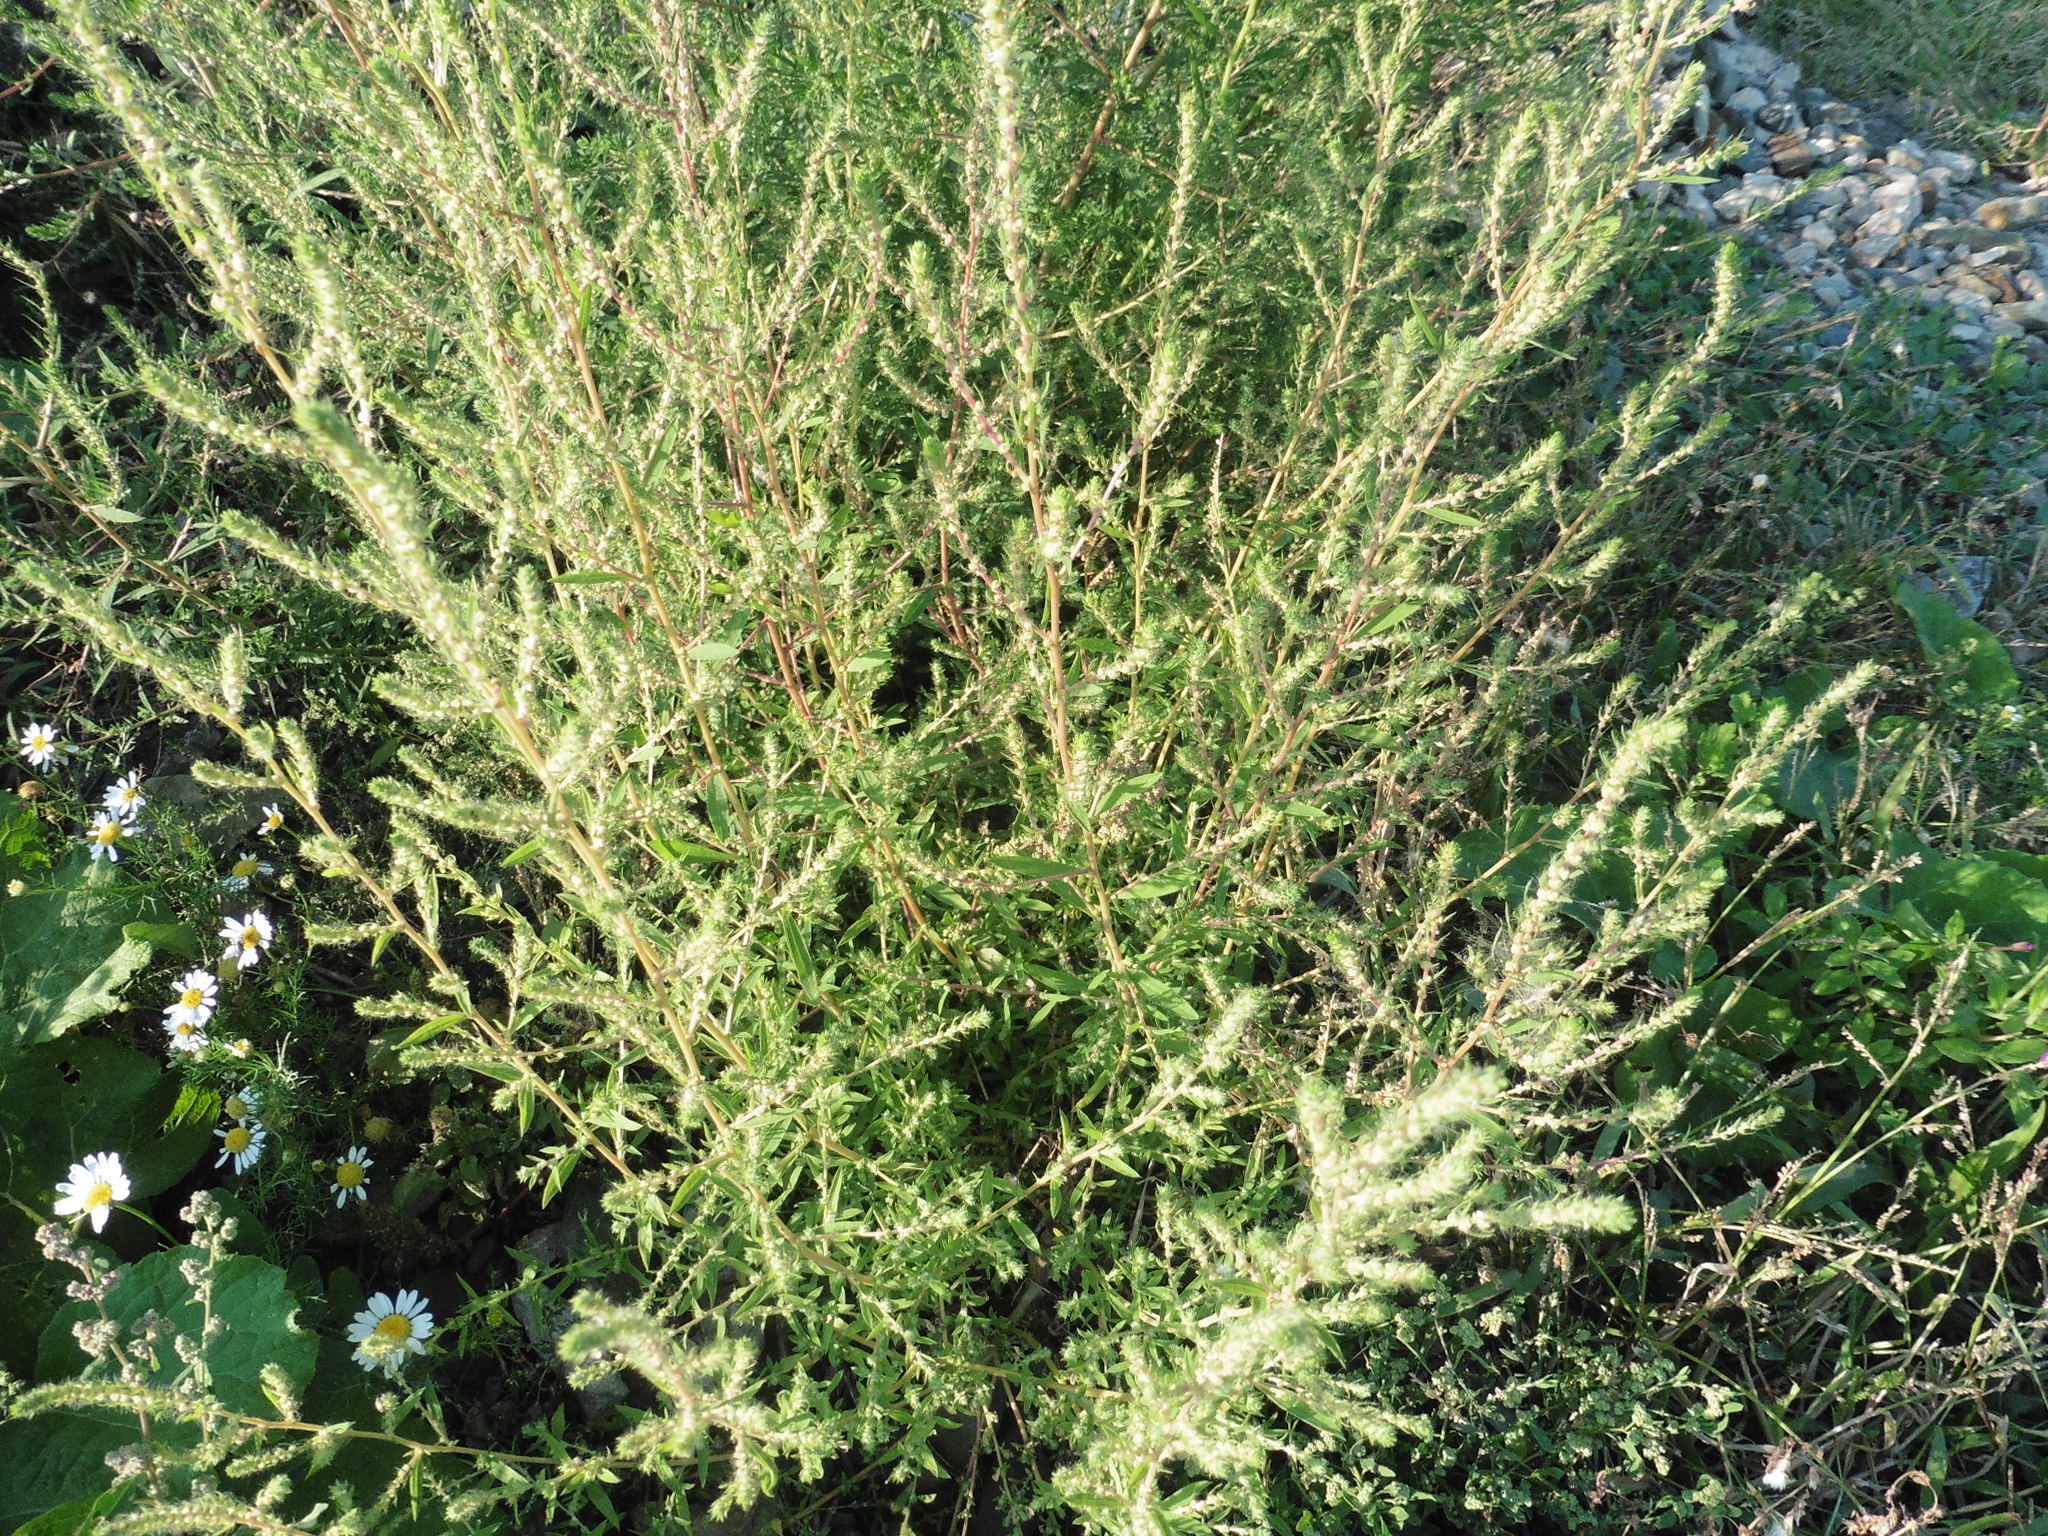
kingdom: Plantae
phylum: Tracheophyta
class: Magnoliopsida
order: Caryophyllales
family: Amaranthaceae
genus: Bassia
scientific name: Bassia scoparia
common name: Belvedere
